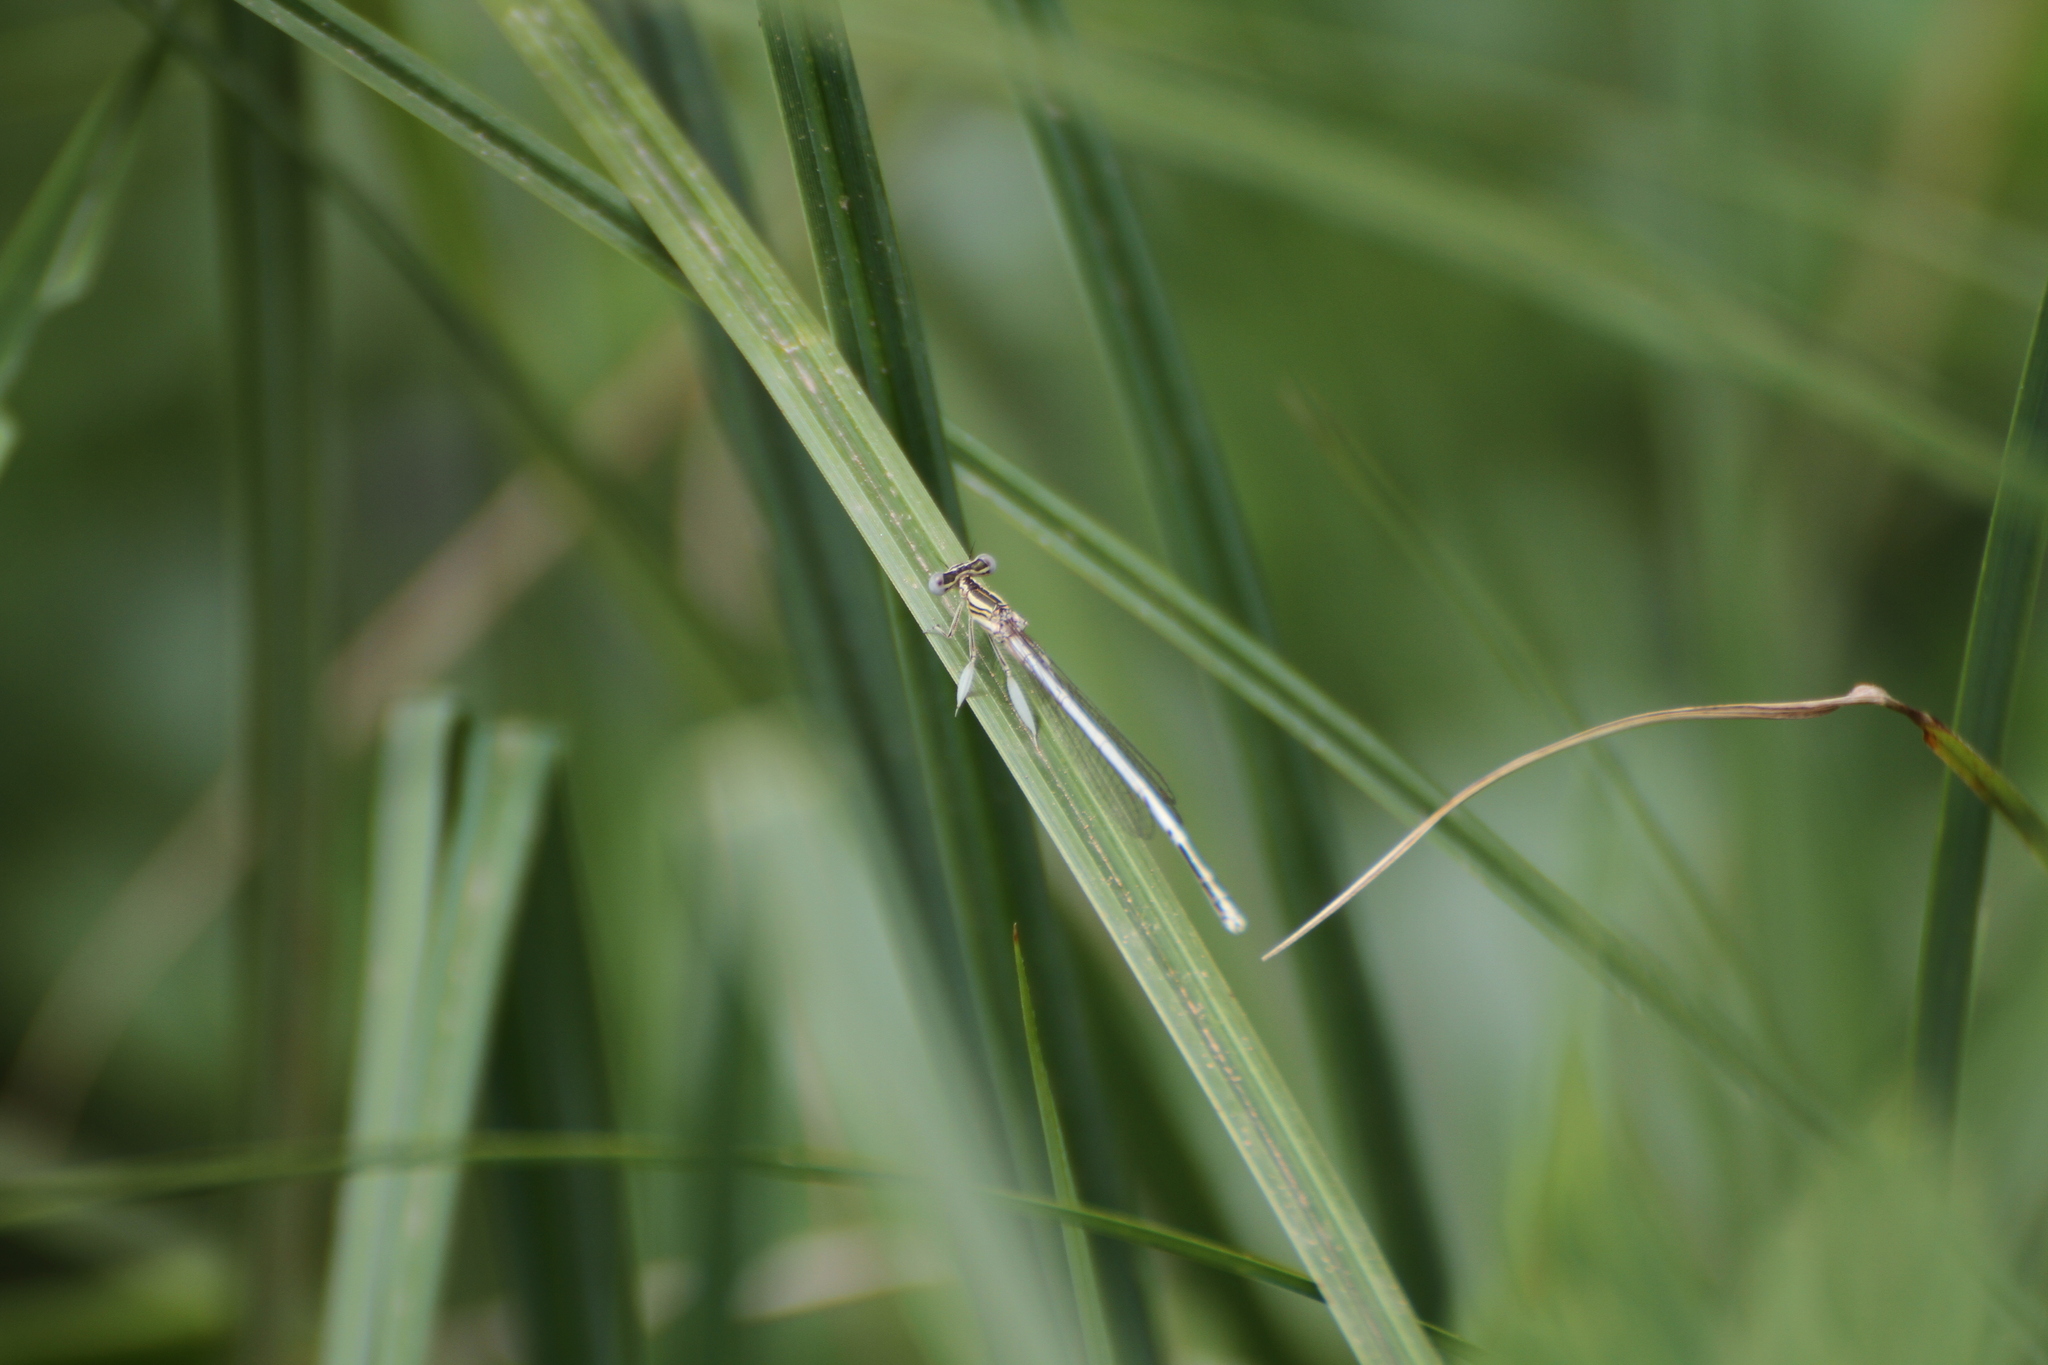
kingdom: Animalia
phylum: Arthropoda
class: Insecta
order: Odonata
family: Platycnemididae
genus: Platycnemis
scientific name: Platycnemis latipes
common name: White featherleg
